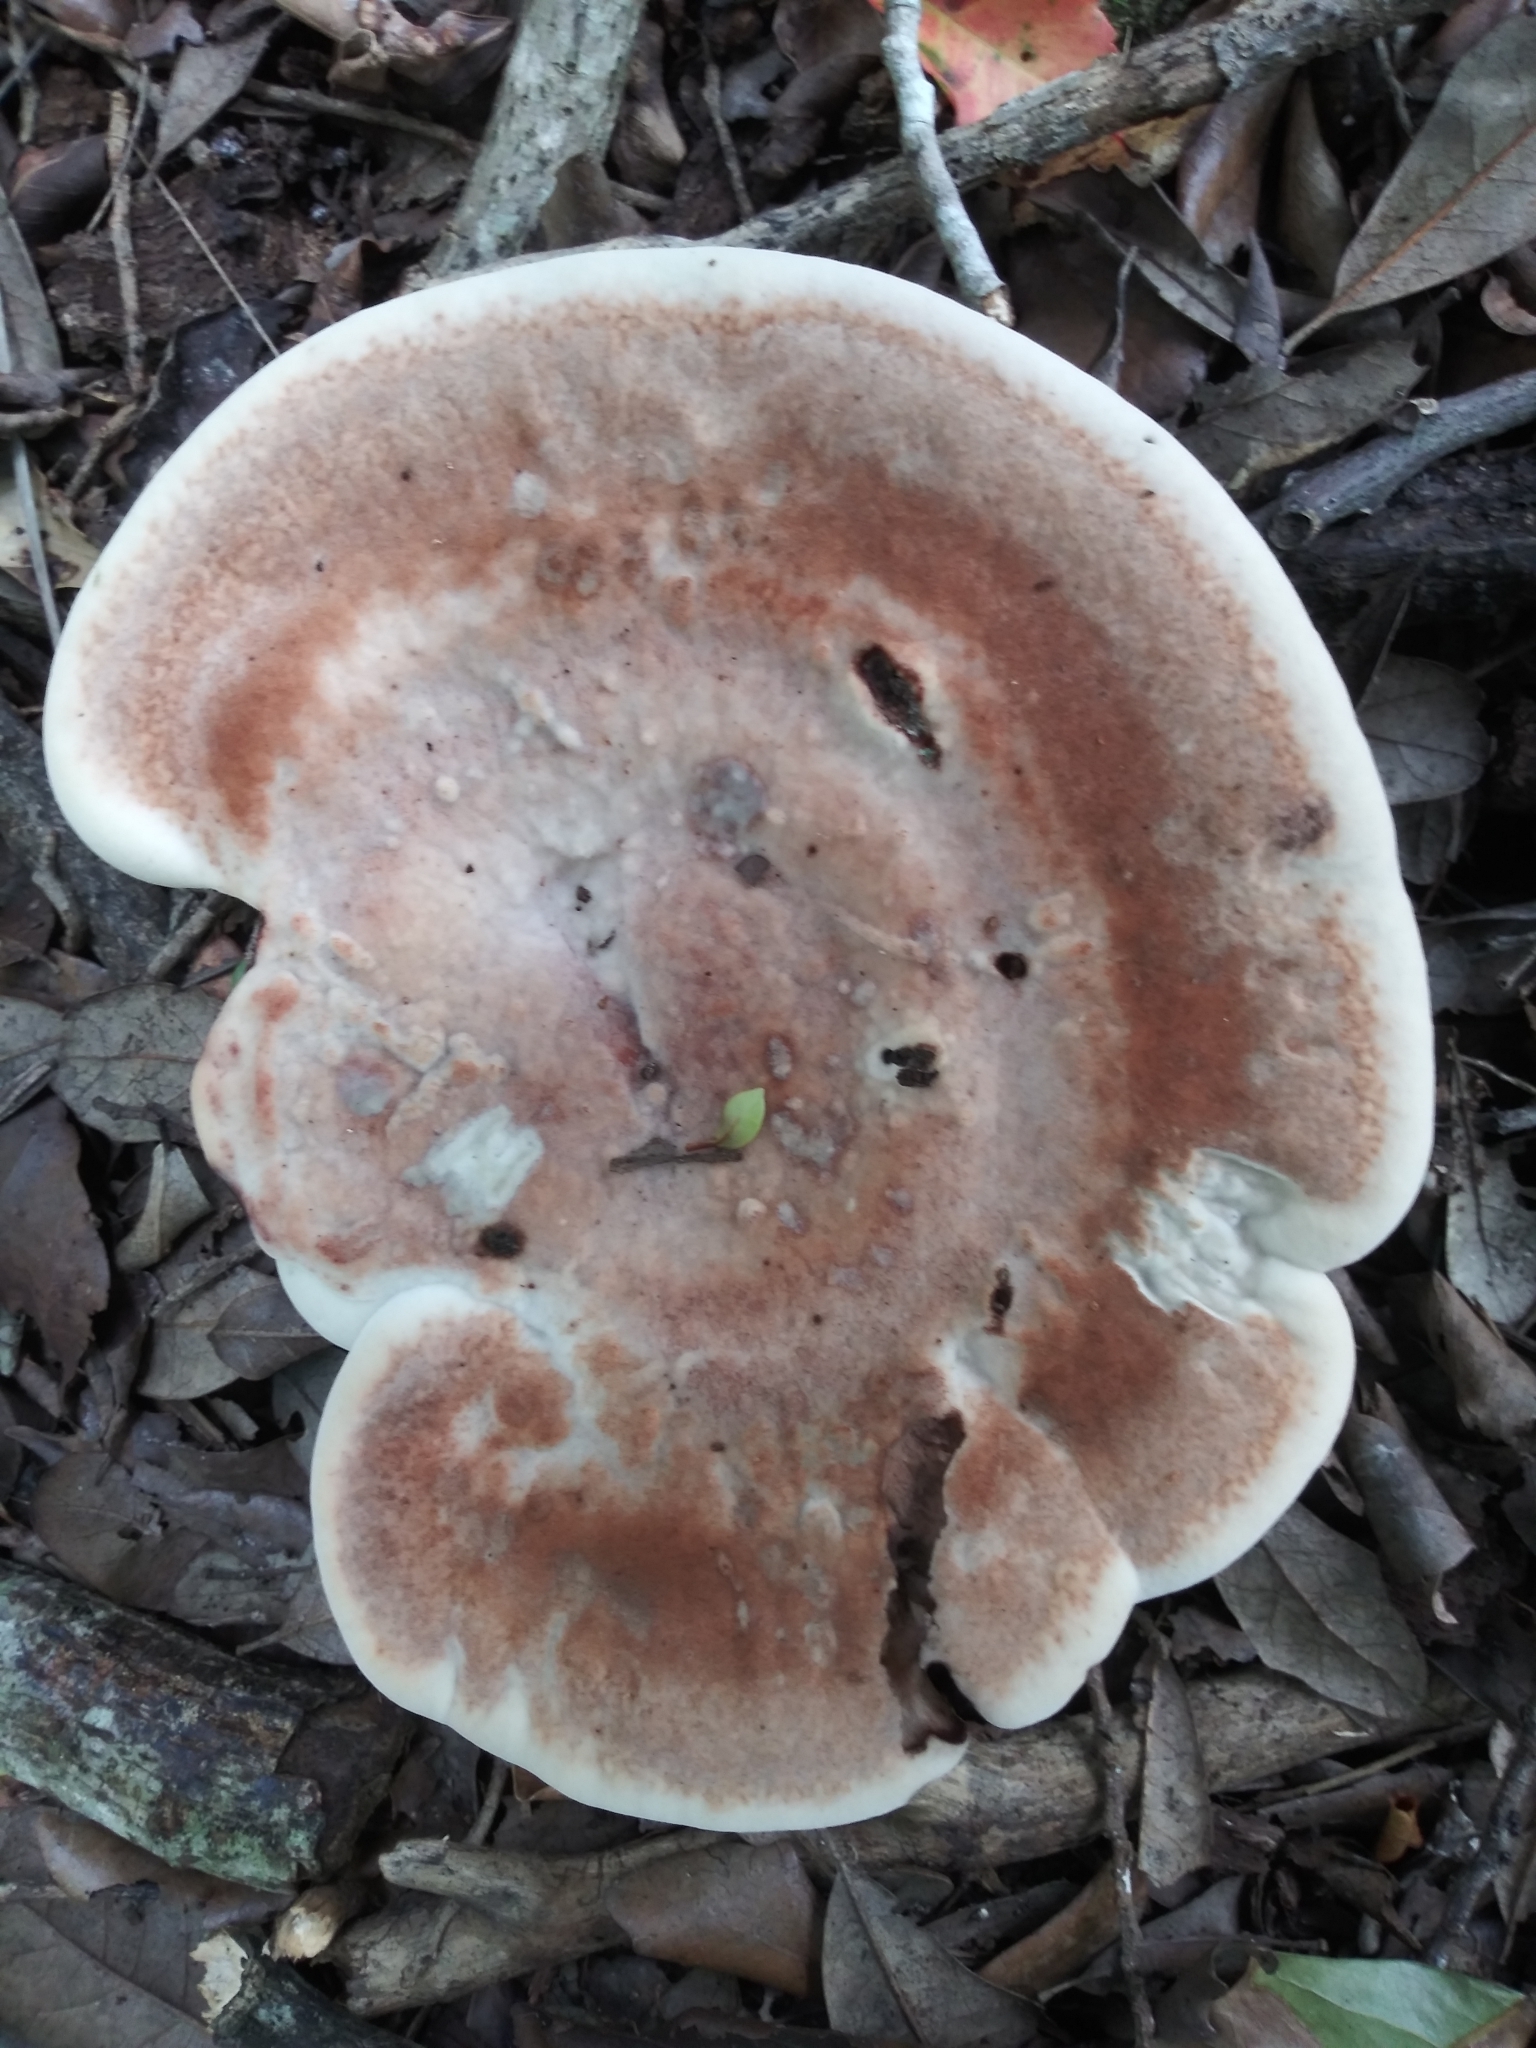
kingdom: Fungi
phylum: Basidiomycota
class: Agaricomycetes
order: Polyporales
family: Laetiporaceae
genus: Berkcurtia
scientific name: Berkcurtia persicina
